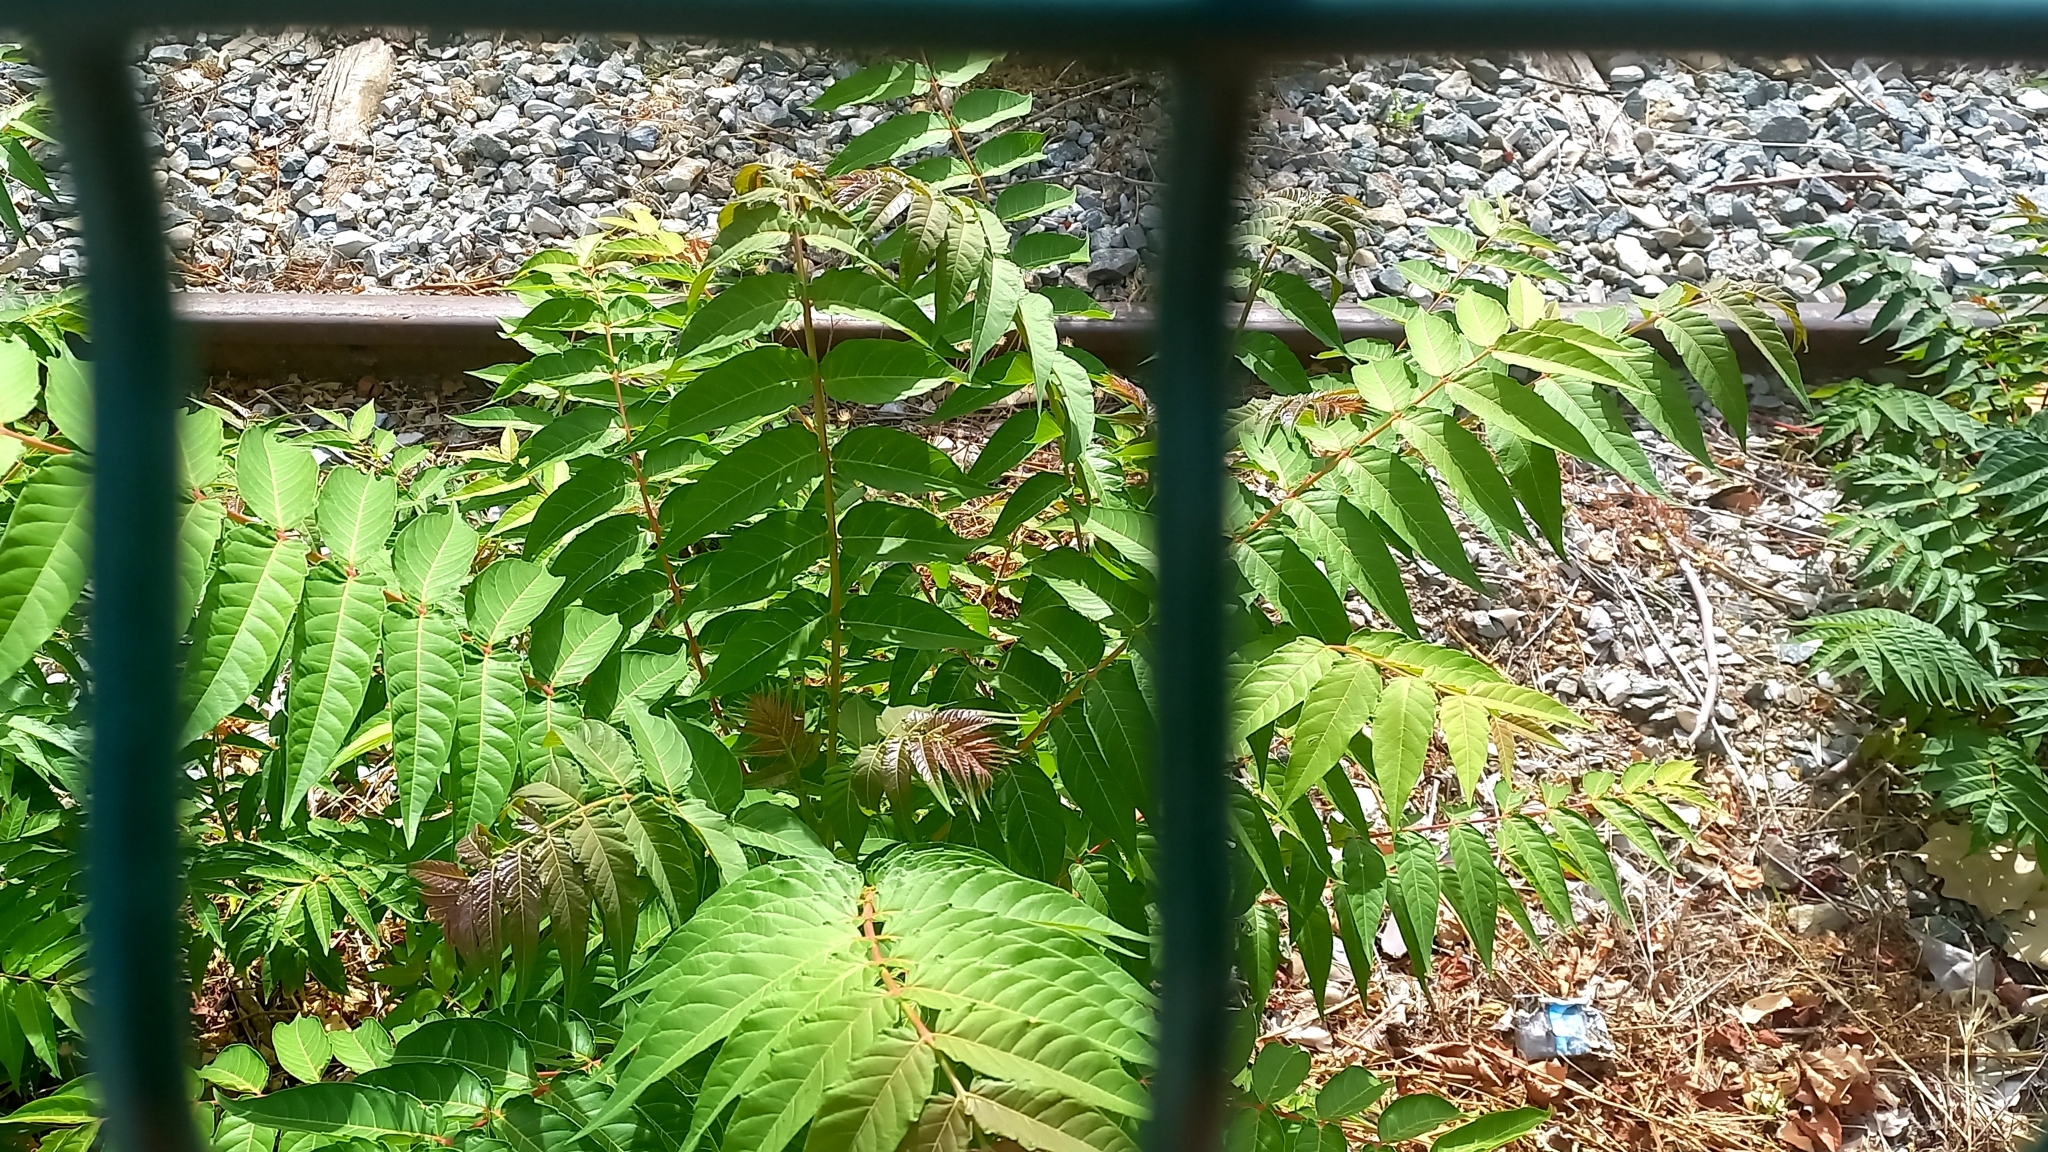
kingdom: Plantae
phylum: Tracheophyta
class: Magnoliopsida
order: Sapindales
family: Simaroubaceae
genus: Ailanthus
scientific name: Ailanthus altissima
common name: Tree-of-heaven
